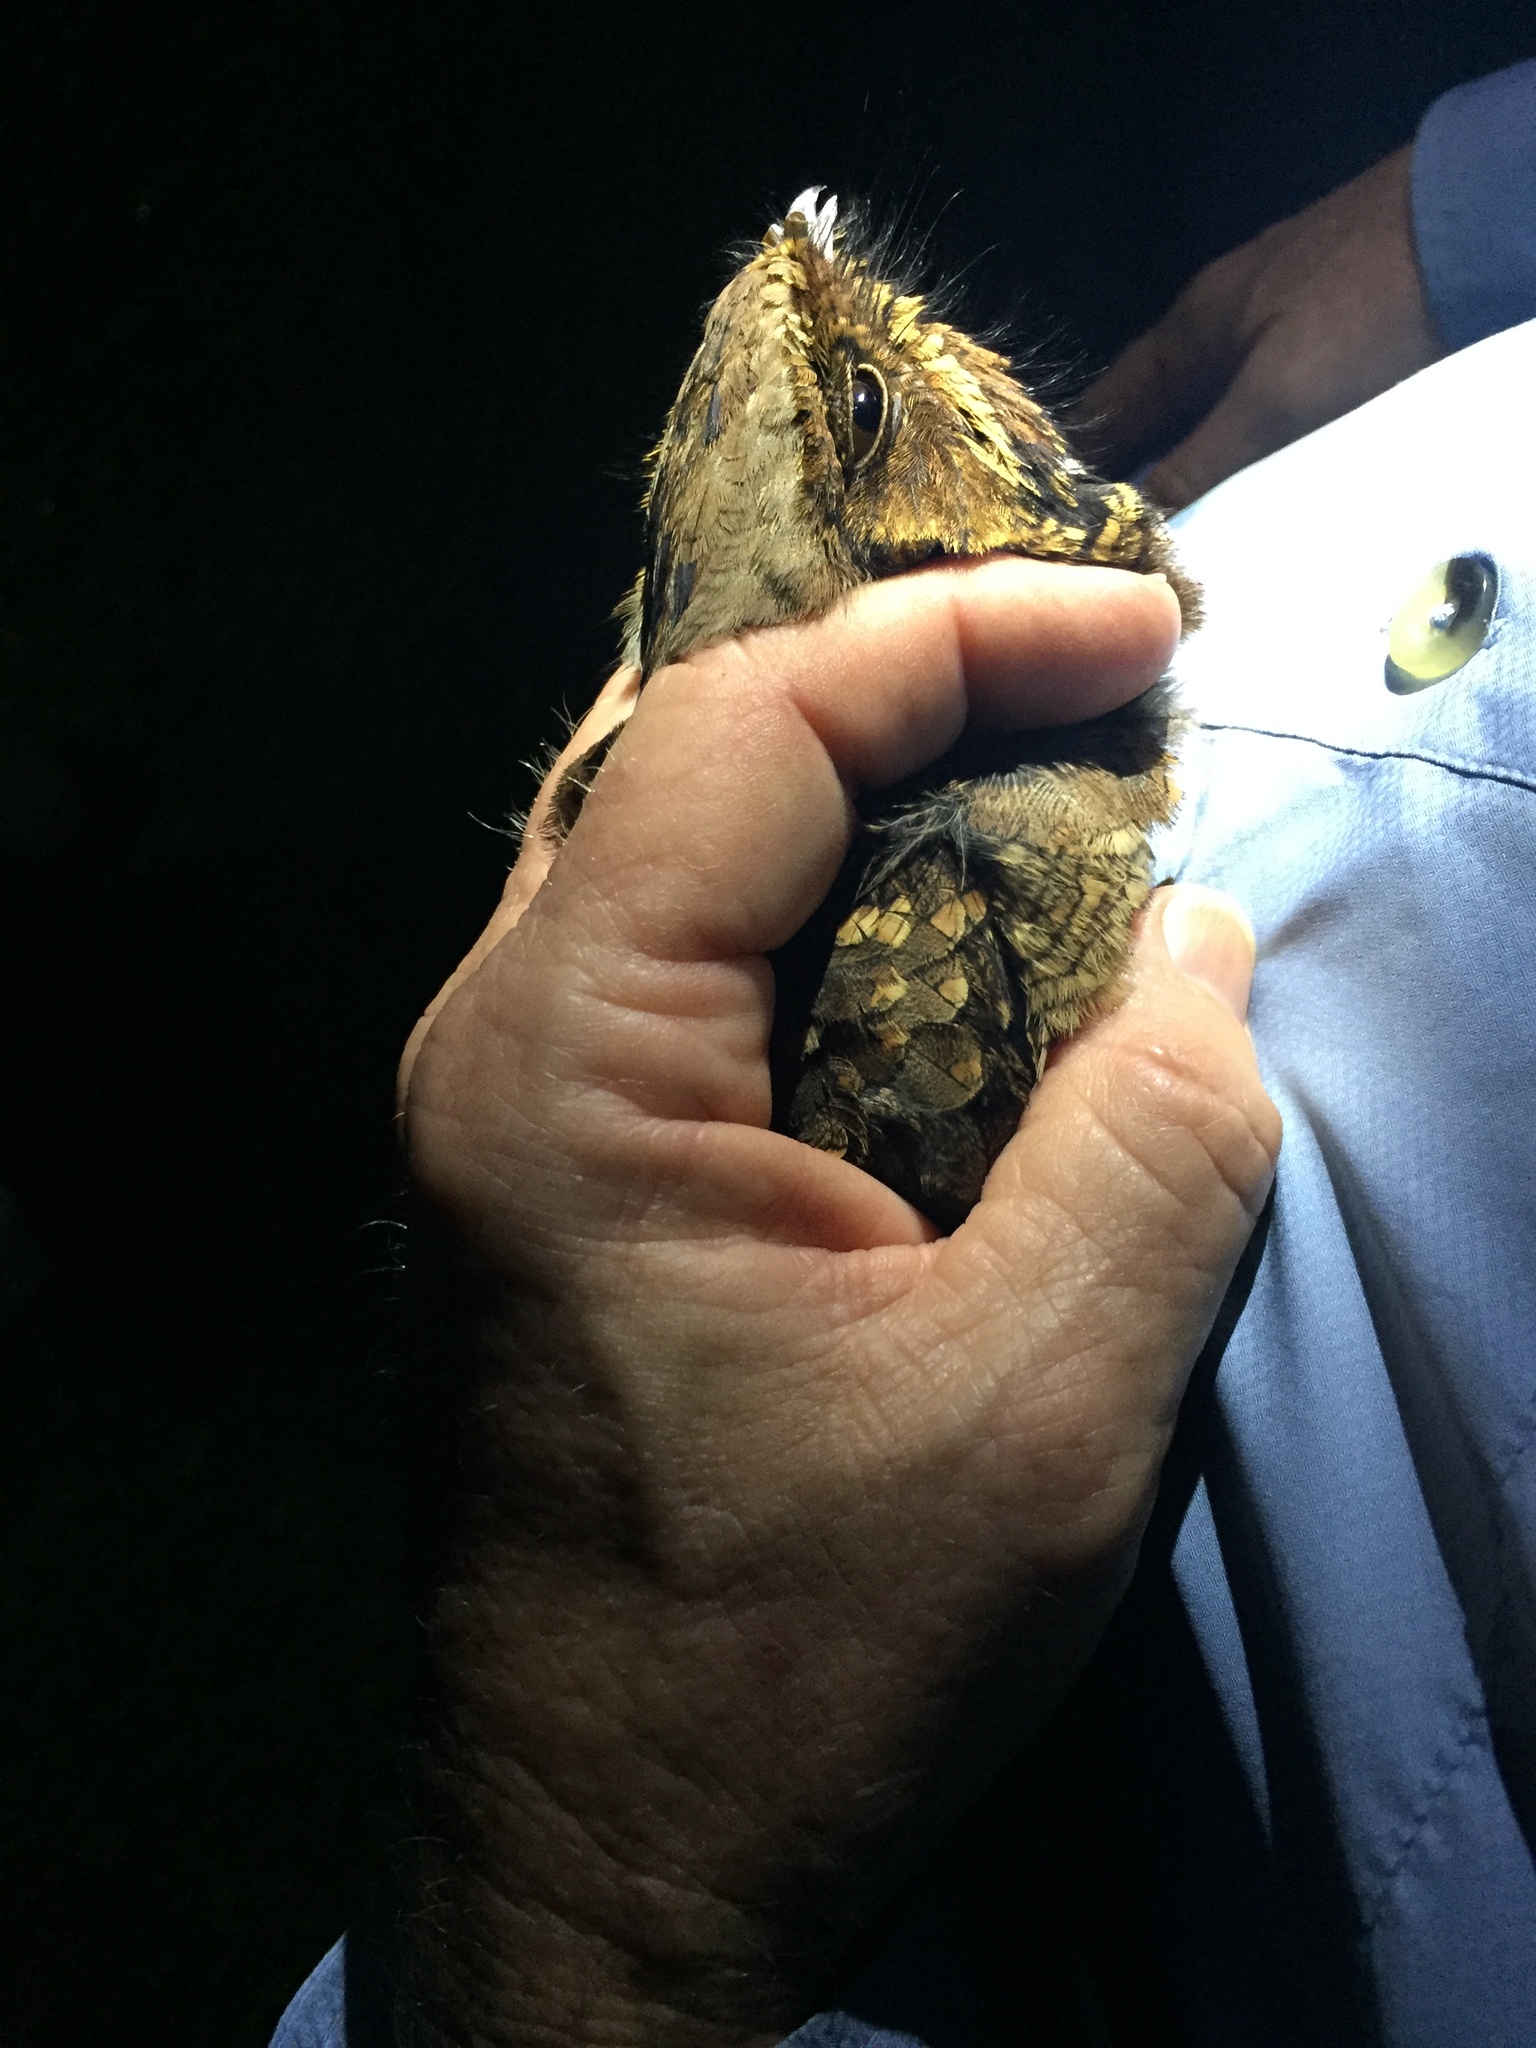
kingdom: Animalia
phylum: Chordata
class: Aves
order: Caprimulgiformes
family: Caprimulgidae
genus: Nyctidromus
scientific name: Nyctidromus albicollis
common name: Pauraque
